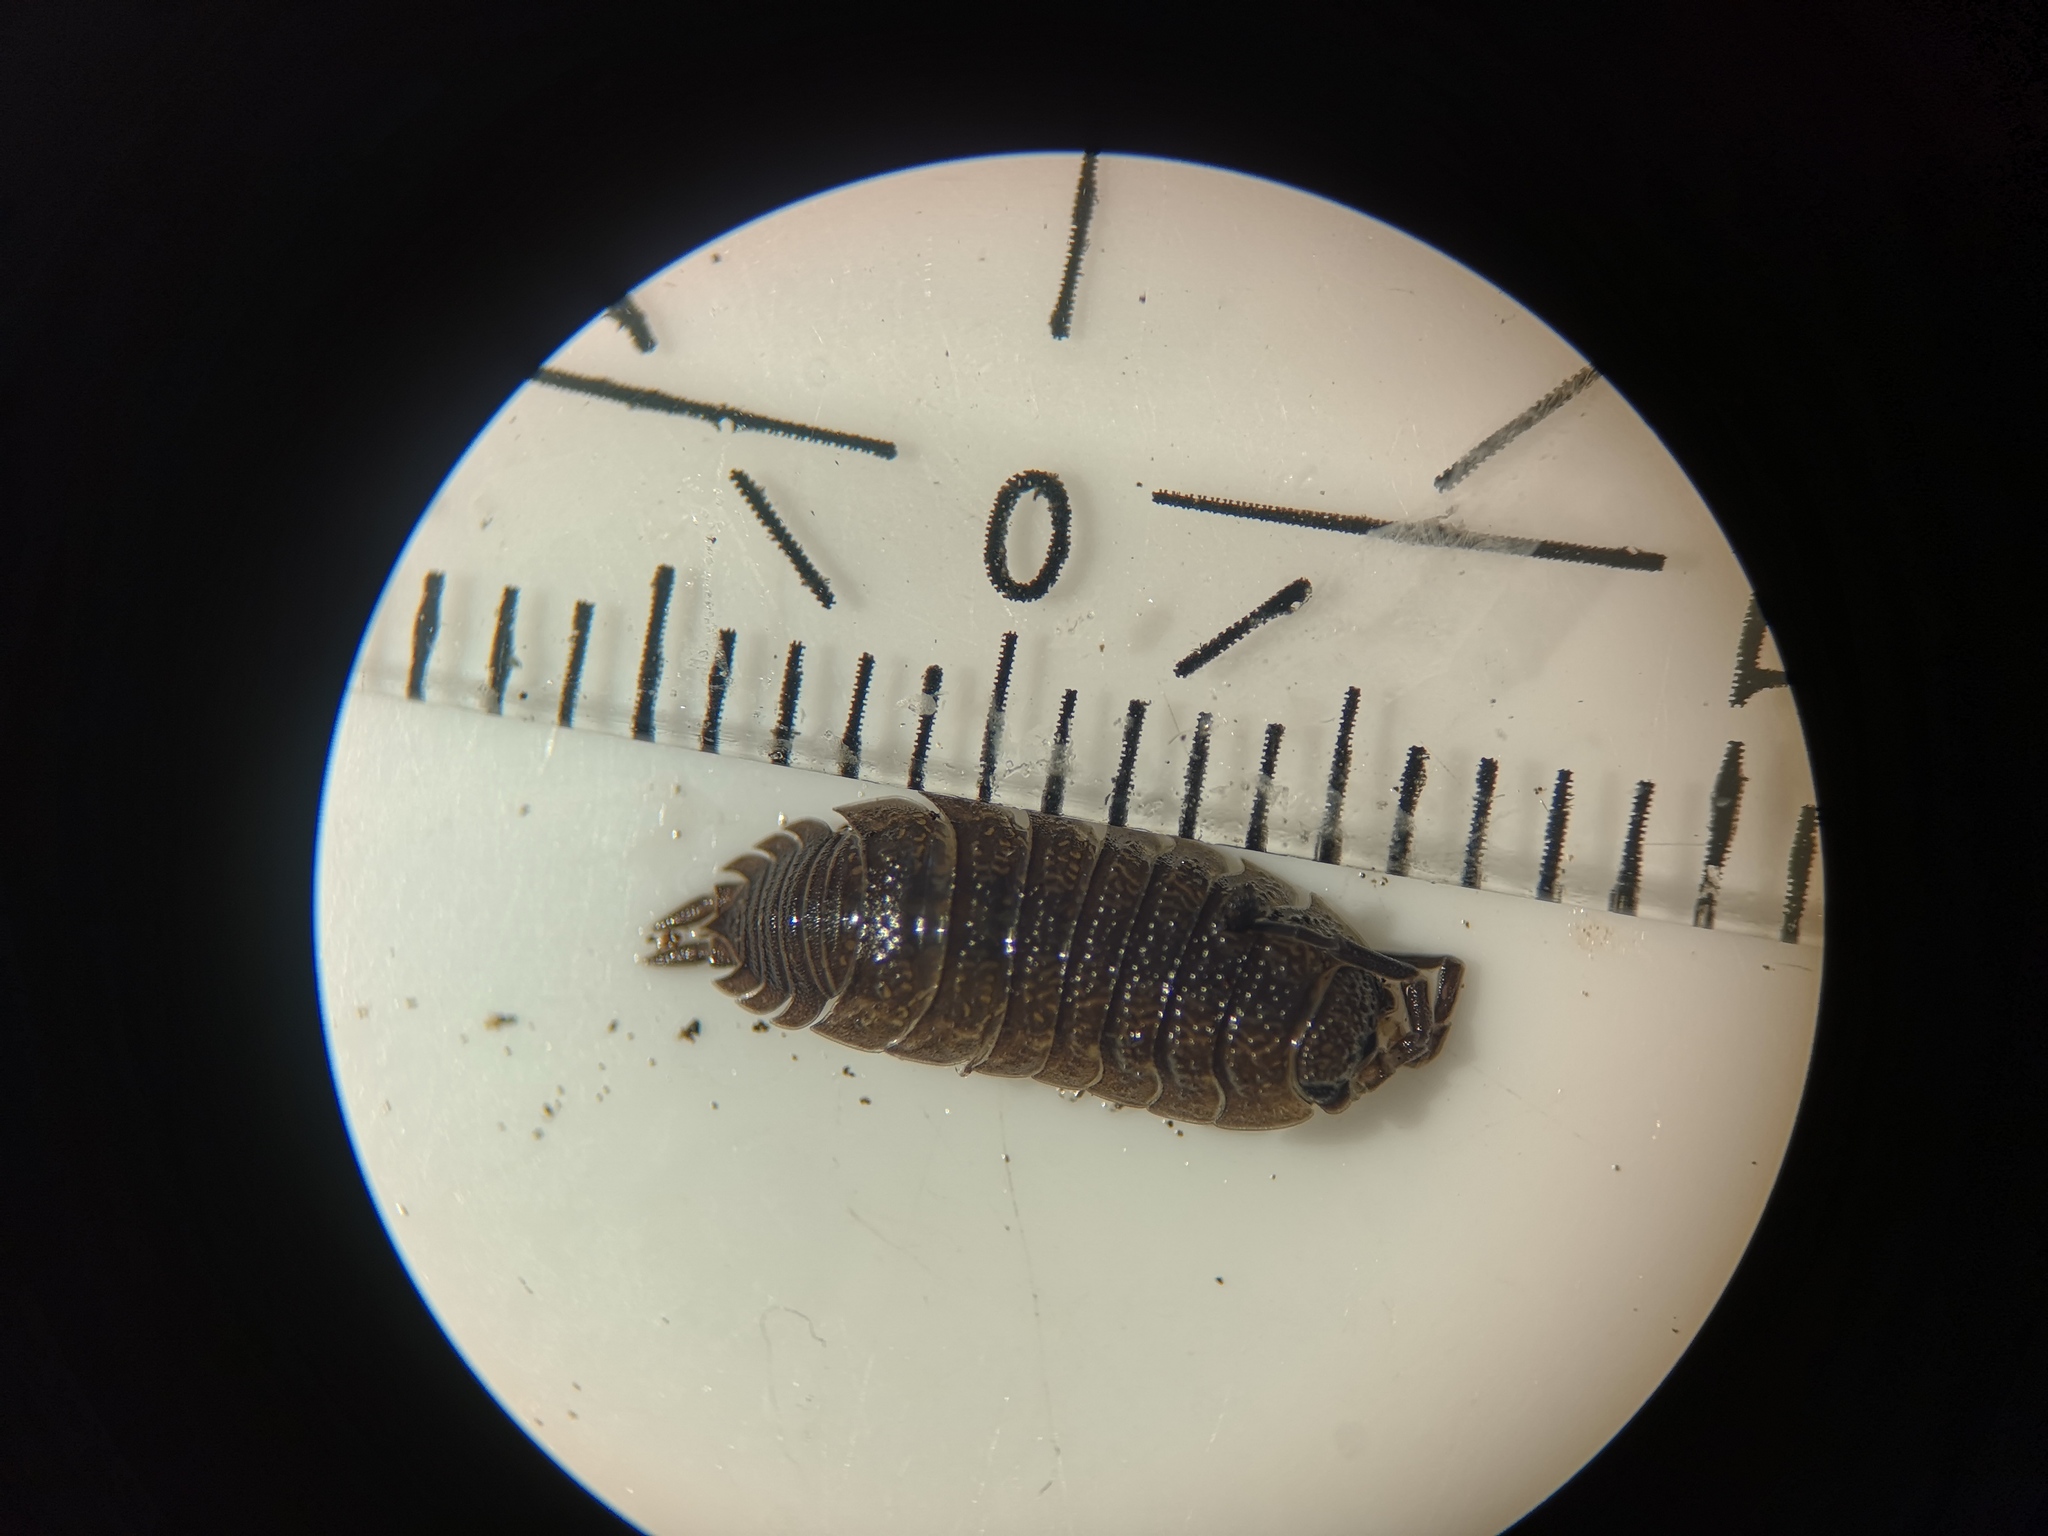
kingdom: Animalia
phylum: Arthropoda
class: Malacostraca
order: Isopoda
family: Porcellionidae
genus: Porcellio
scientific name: Porcellio scaber
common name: Common rough woodlouse
